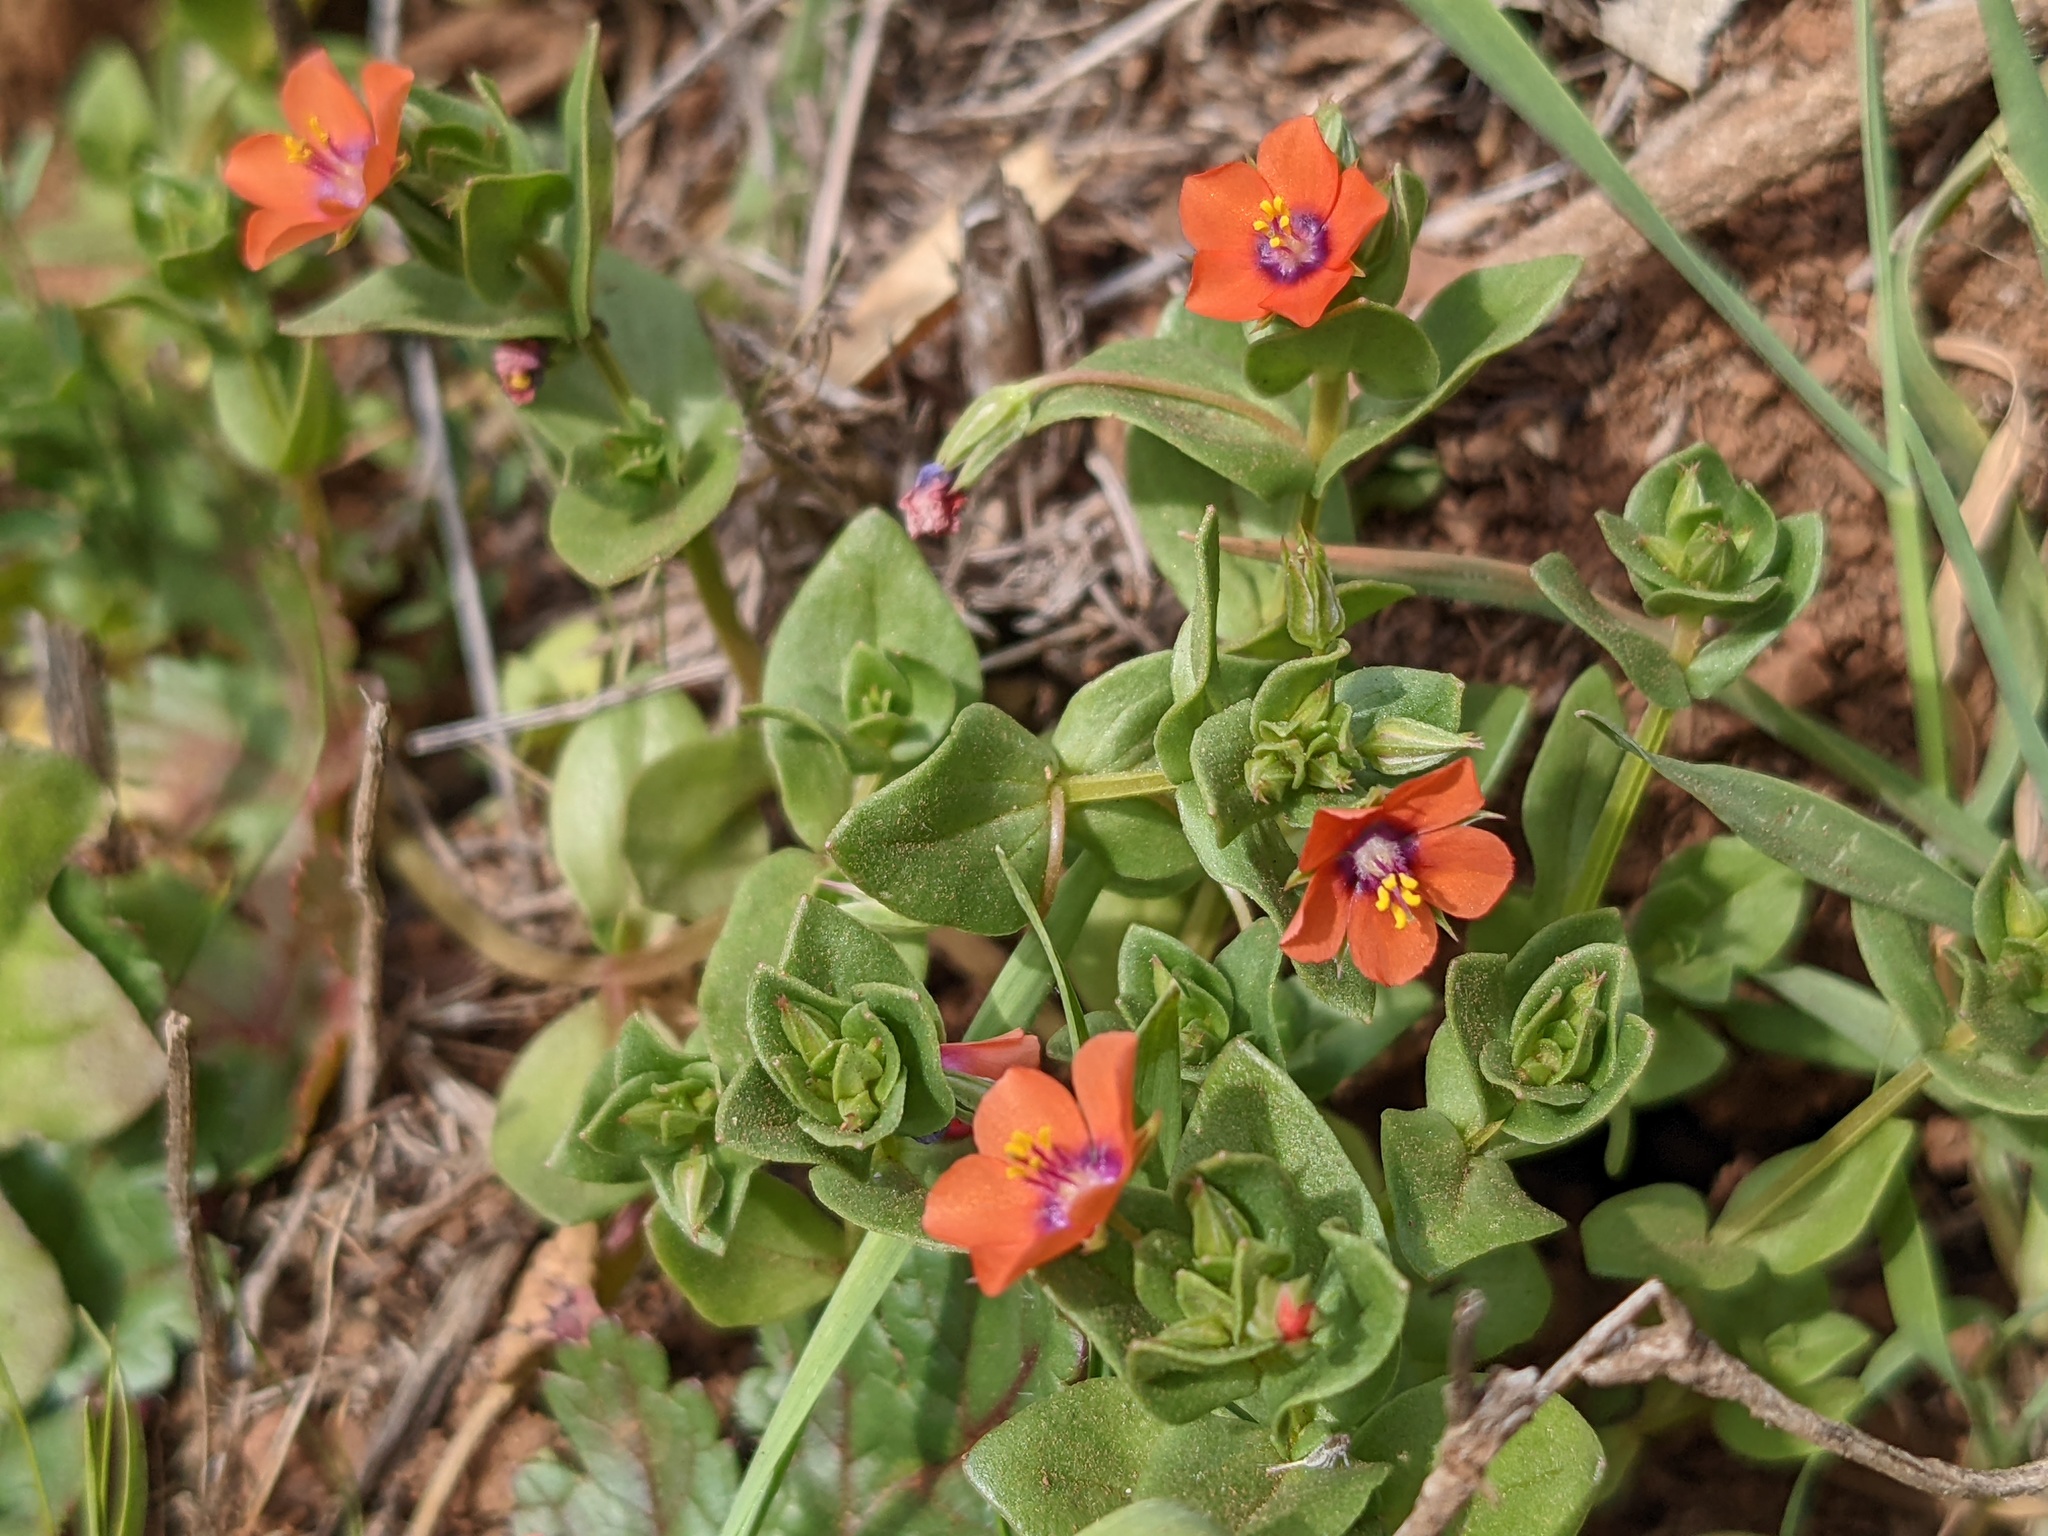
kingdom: Plantae
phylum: Tracheophyta
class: Magnoliopsida
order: Ericales
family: Primulaceae
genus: Lysimachia
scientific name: Lysimachia arvensis
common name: Scarlet pimpernel
